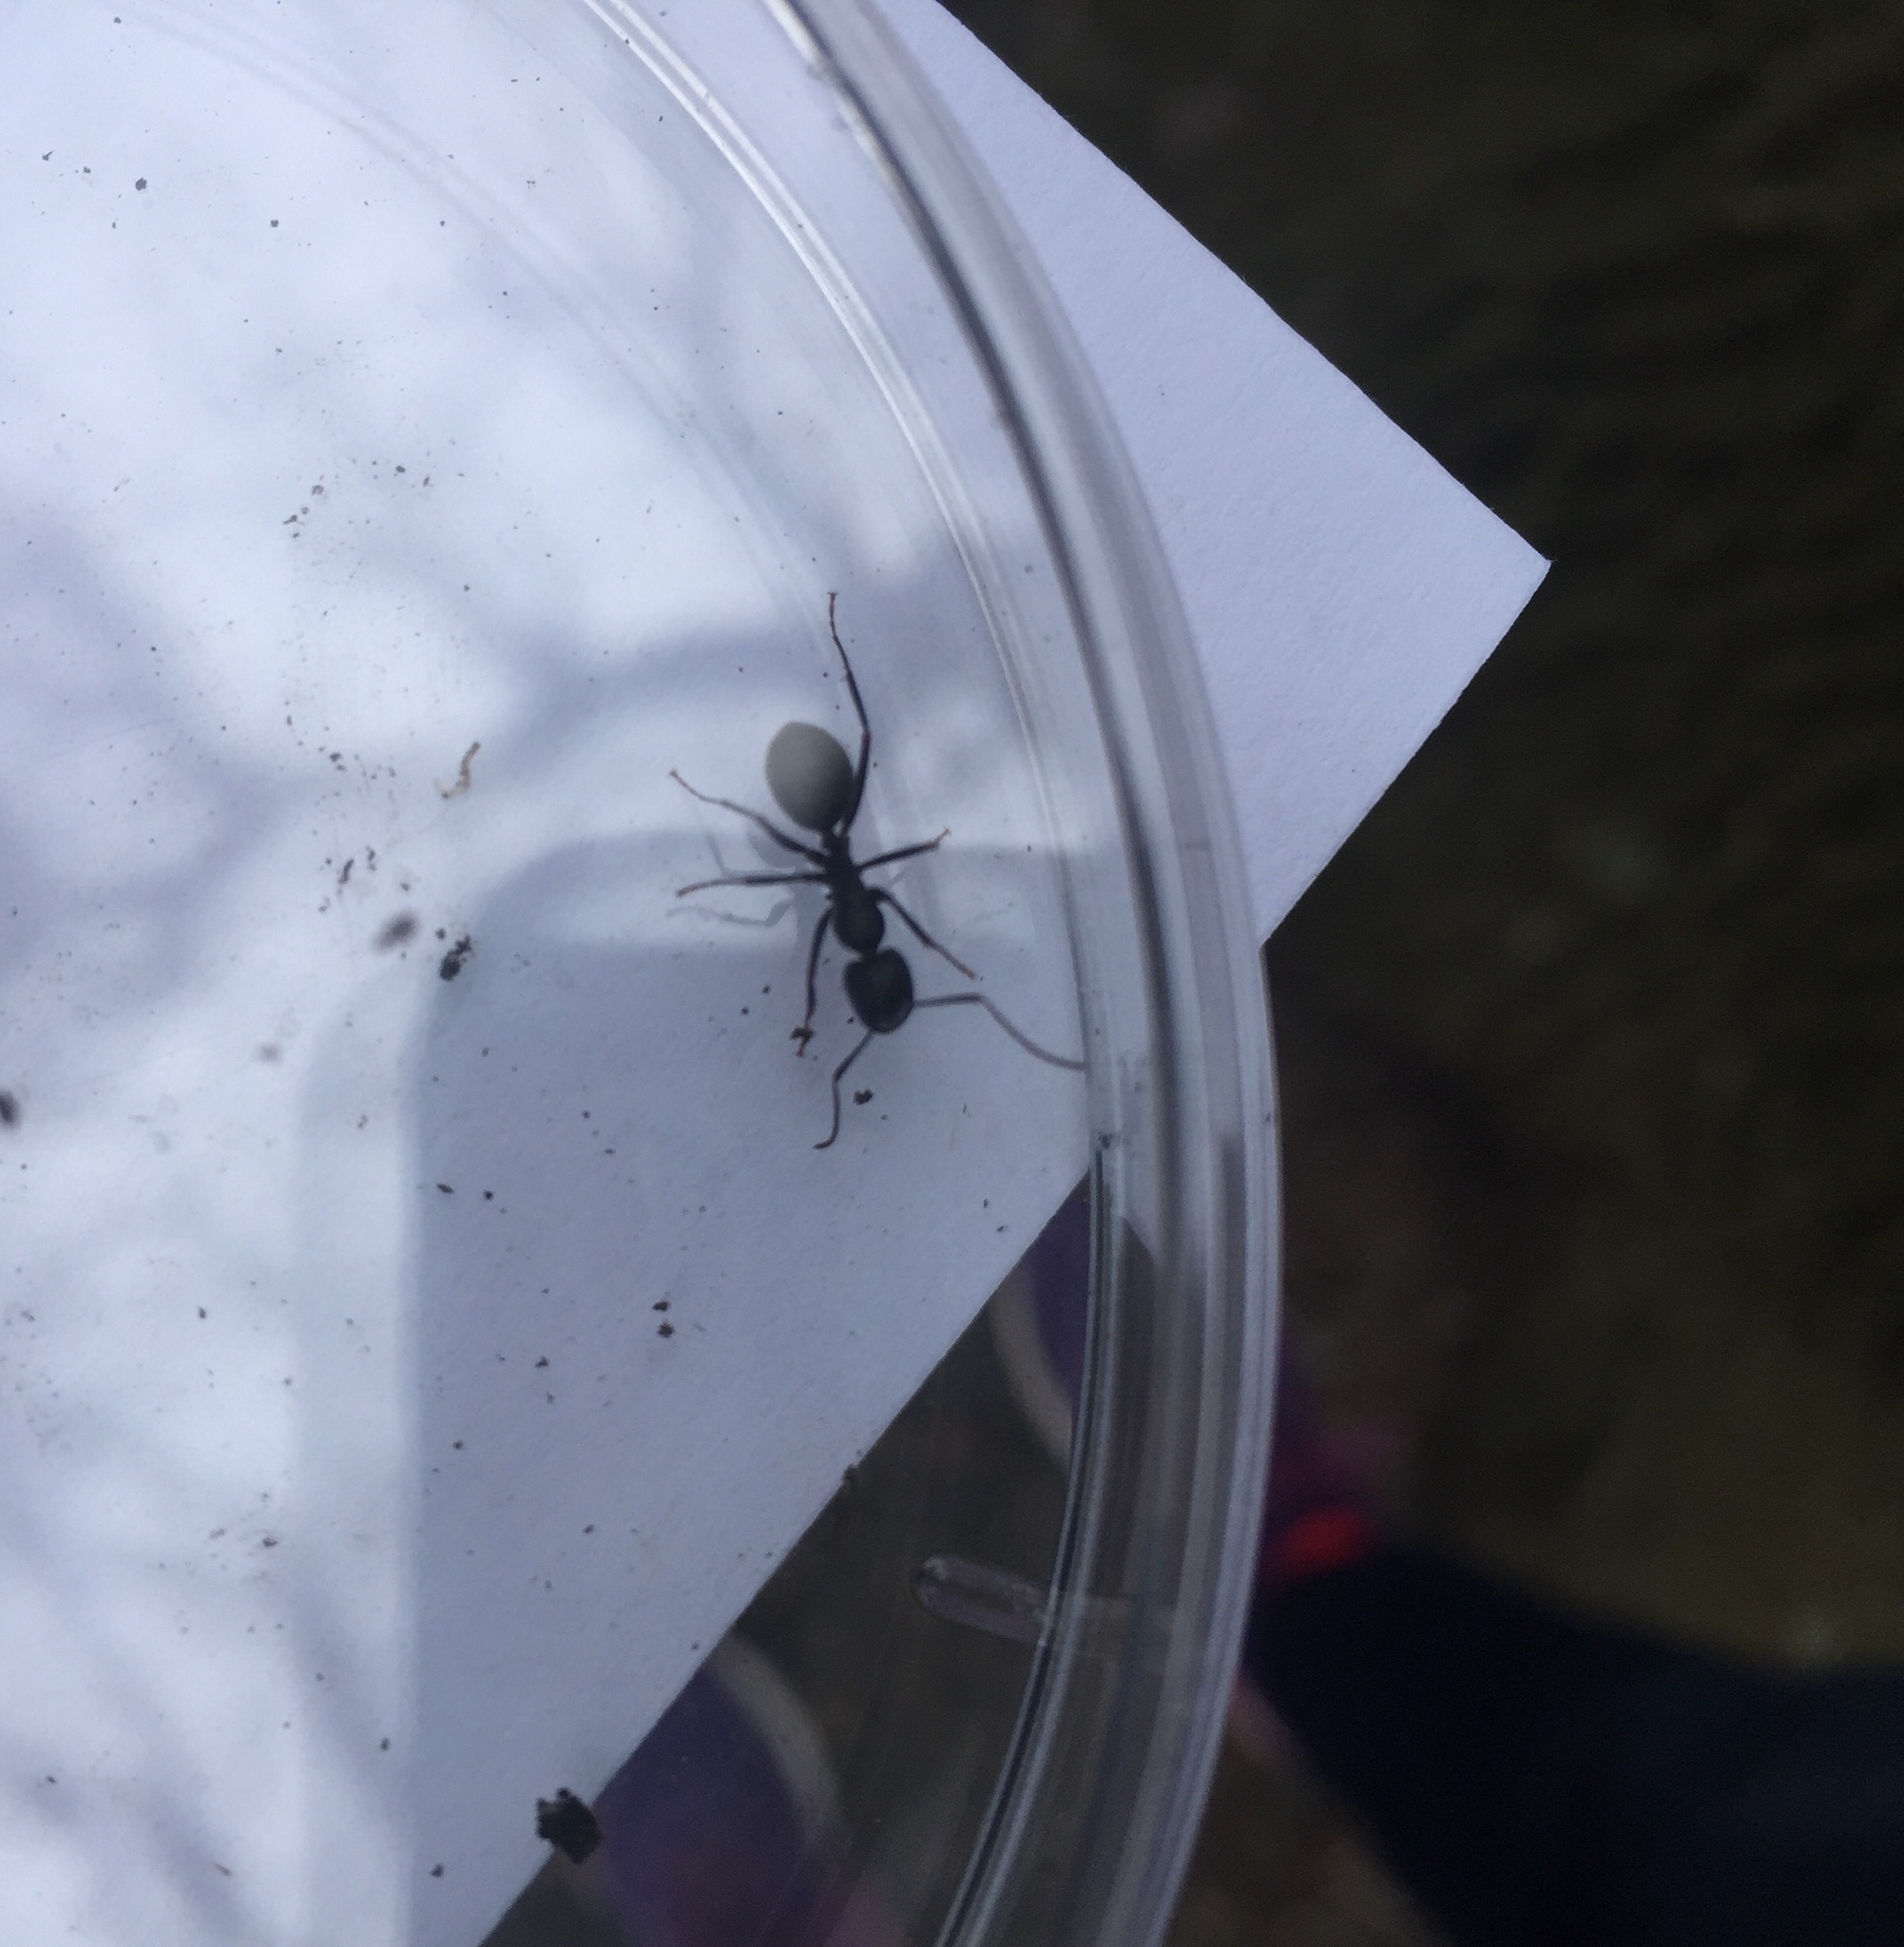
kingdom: Animalia
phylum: Arthropoda
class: Insecta
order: Hymenoptera
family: Formicidae
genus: Camponotus
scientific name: Camponotus pennsylvanicus
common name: Black carpenter ant
